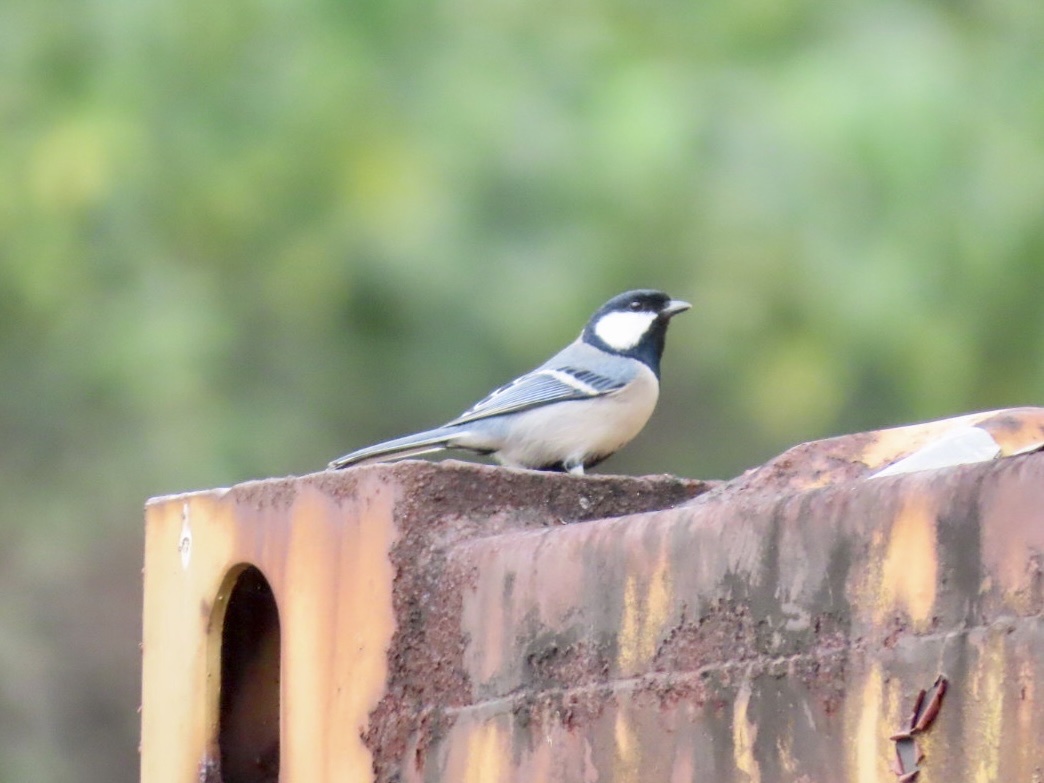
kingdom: Animalia
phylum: Chordata
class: Aves
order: Passeriformes
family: Paridae
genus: Parus
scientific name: Parus minor
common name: Japanese tit
